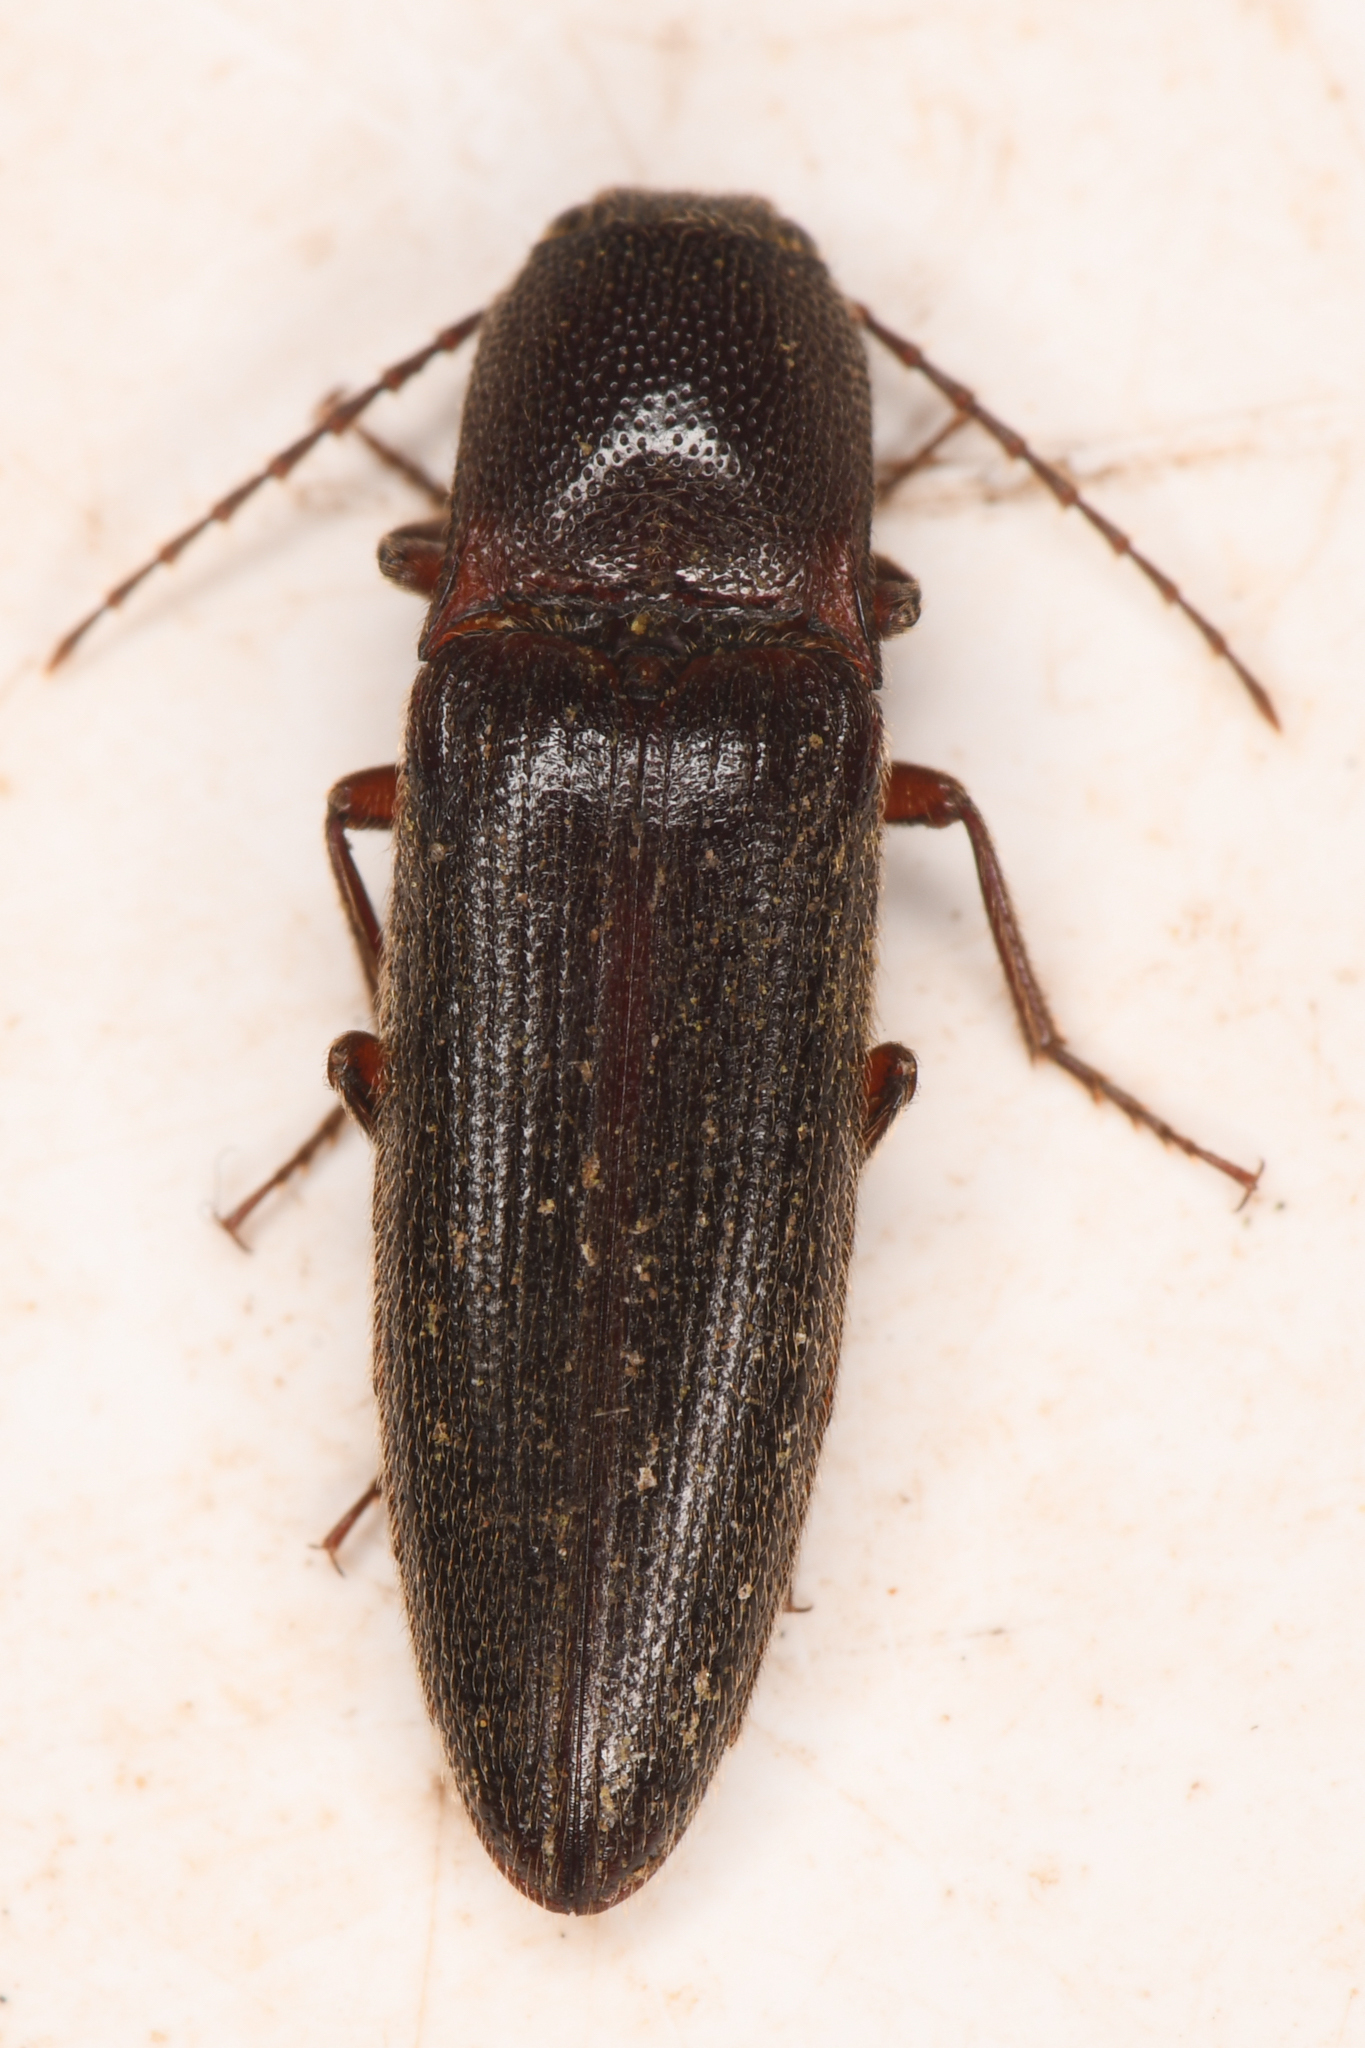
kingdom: Animalia
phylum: Arthropoda
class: Insecta
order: Coleoptera
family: Elateridae
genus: Melanotus
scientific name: Melanotus longulus
